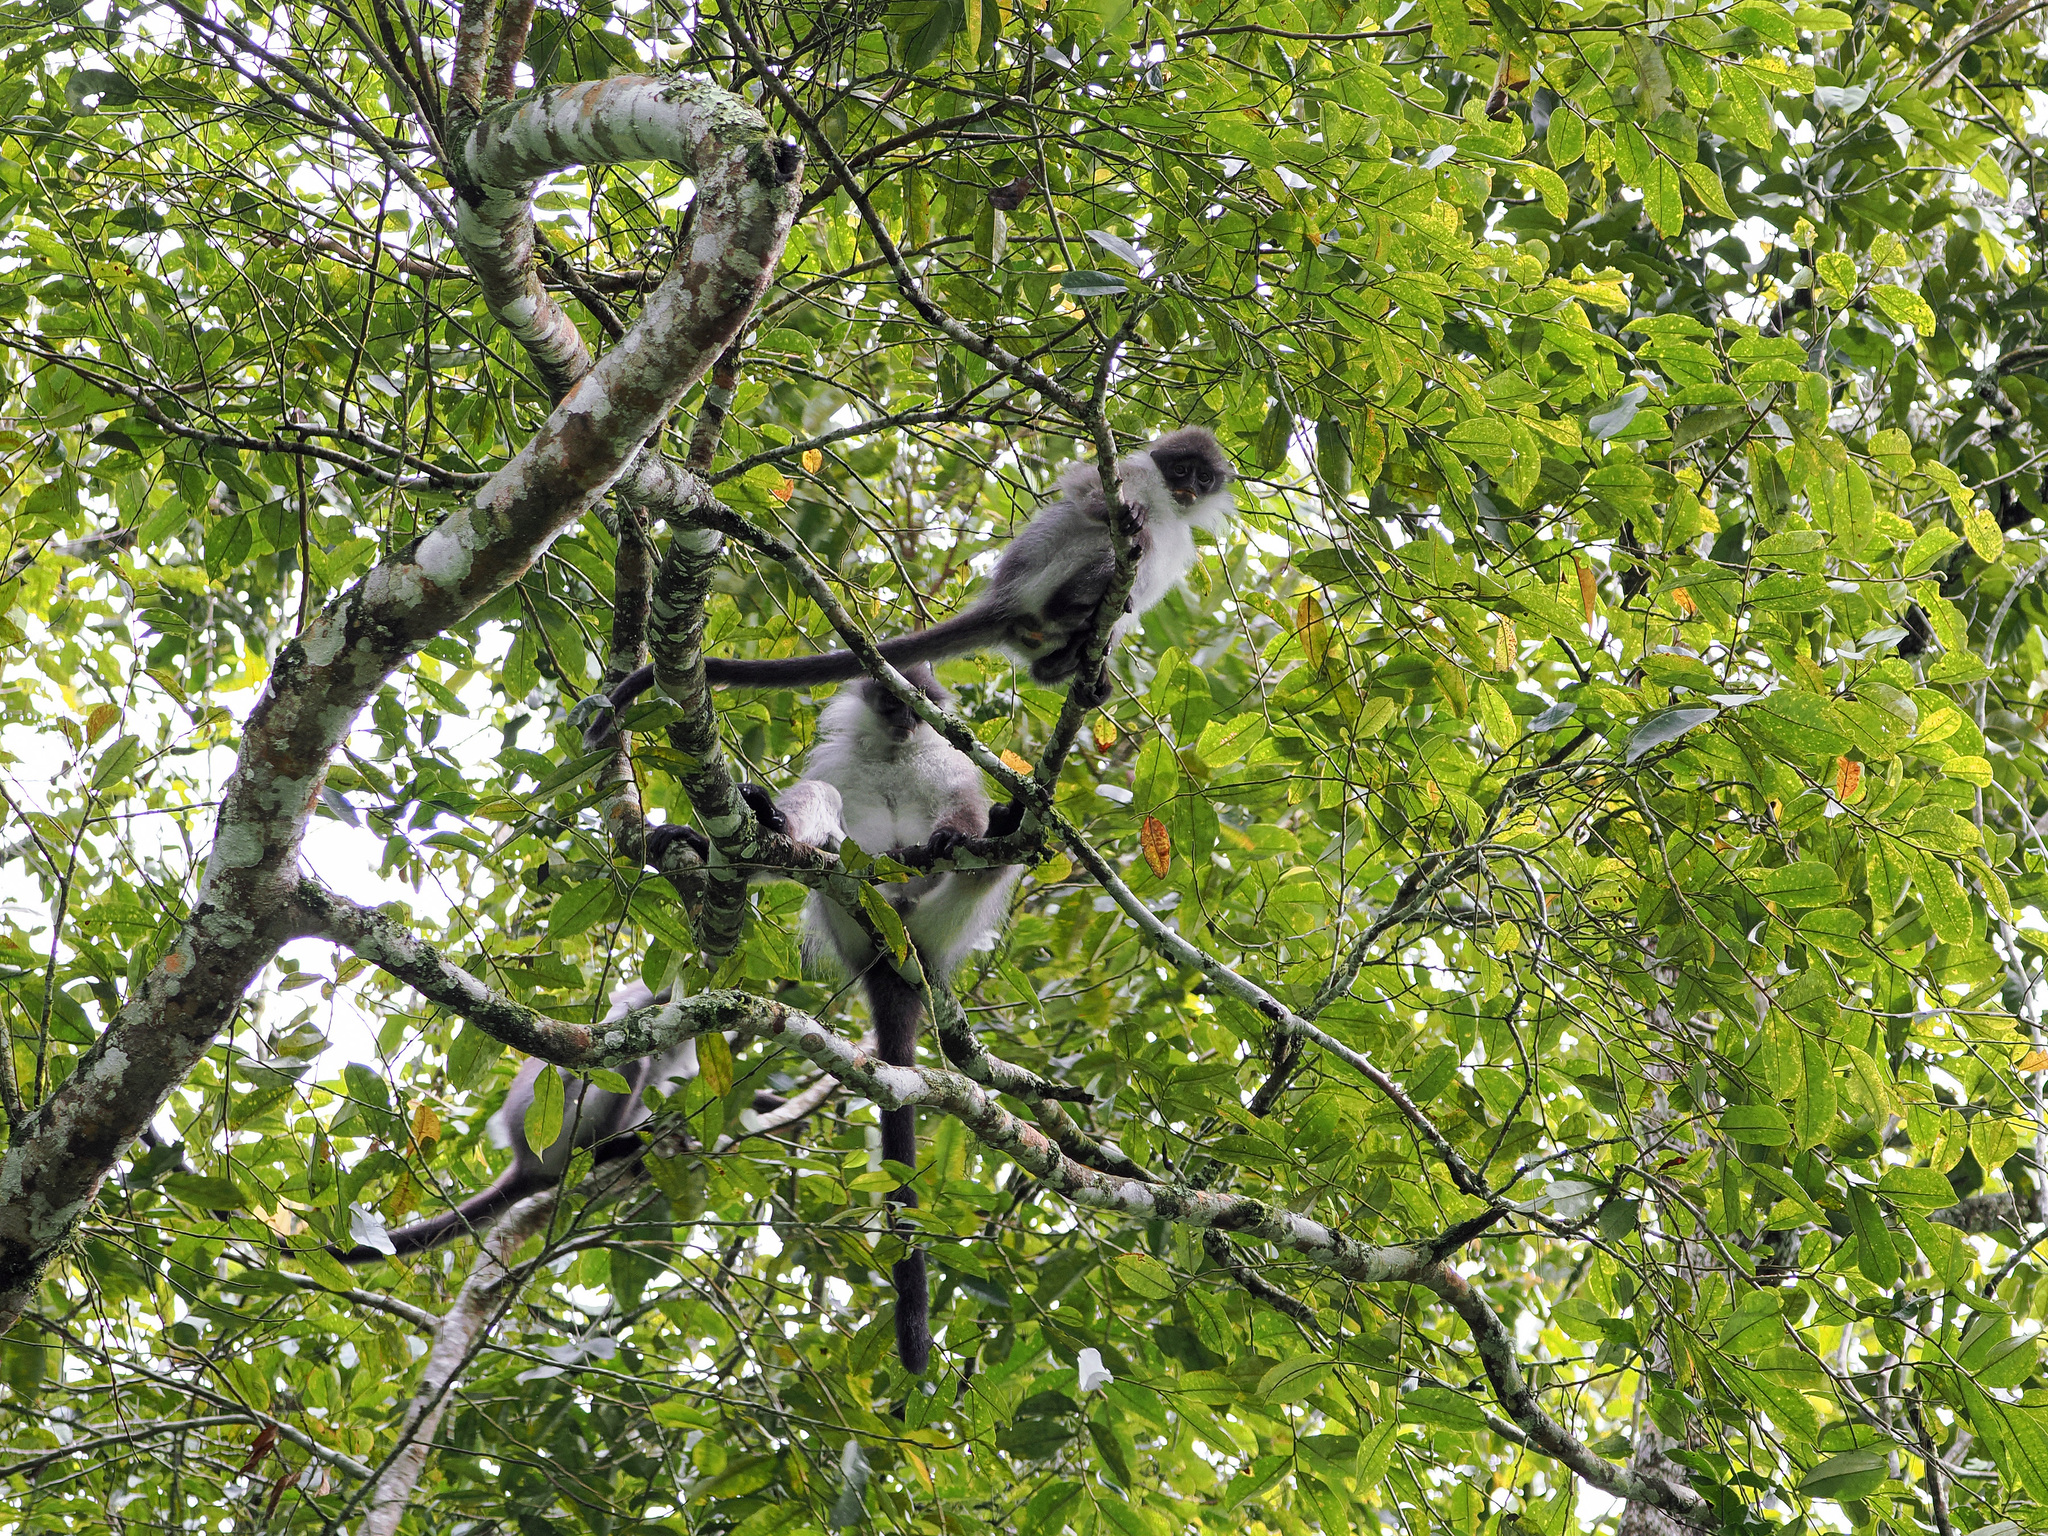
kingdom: Animalia
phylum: Chordata
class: Mammalia
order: Primates
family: Cercopithecidae
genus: Presbytis
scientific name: Presbytis siamensis
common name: White-thighed surili
